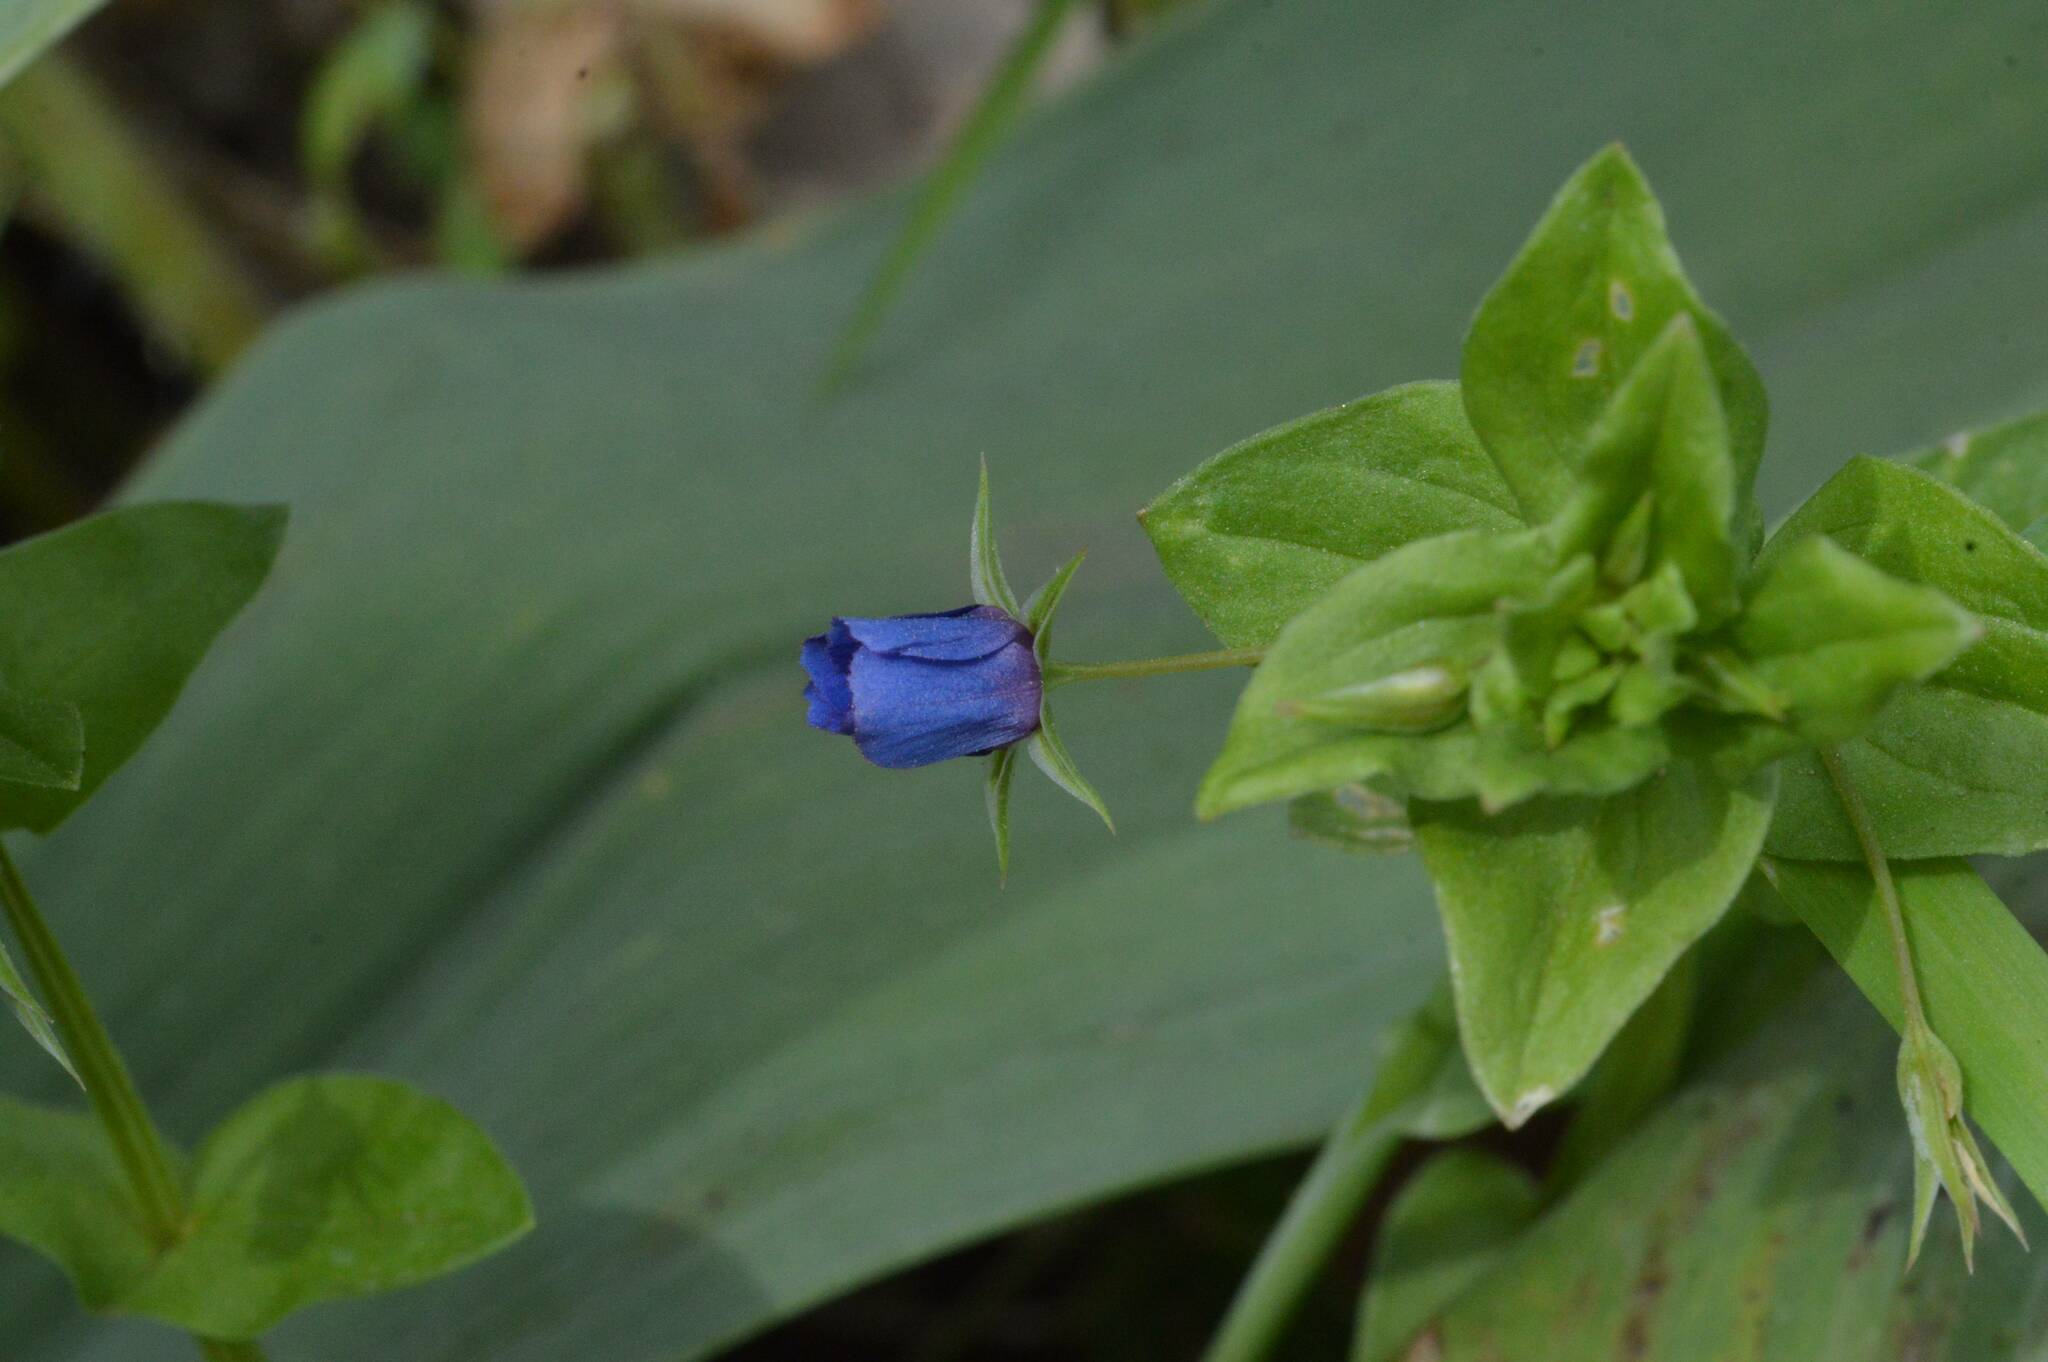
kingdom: Plantae
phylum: Tracheophyta
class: Magnoliopsida
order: Ericales
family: Primulaceae
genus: Lysimachia
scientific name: Lysimachia loeflingii
